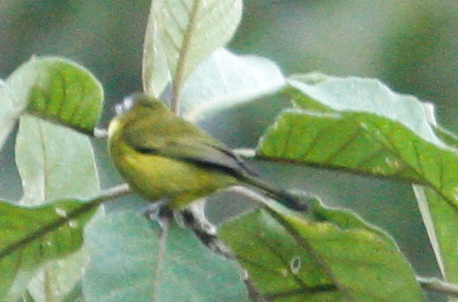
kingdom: Animalia
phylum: Chordata
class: Aves
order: Passeriformes
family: Thraupidae
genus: Thlypopsis
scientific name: Thlypopsis superciliaris
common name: Superciliaried hemispingus
